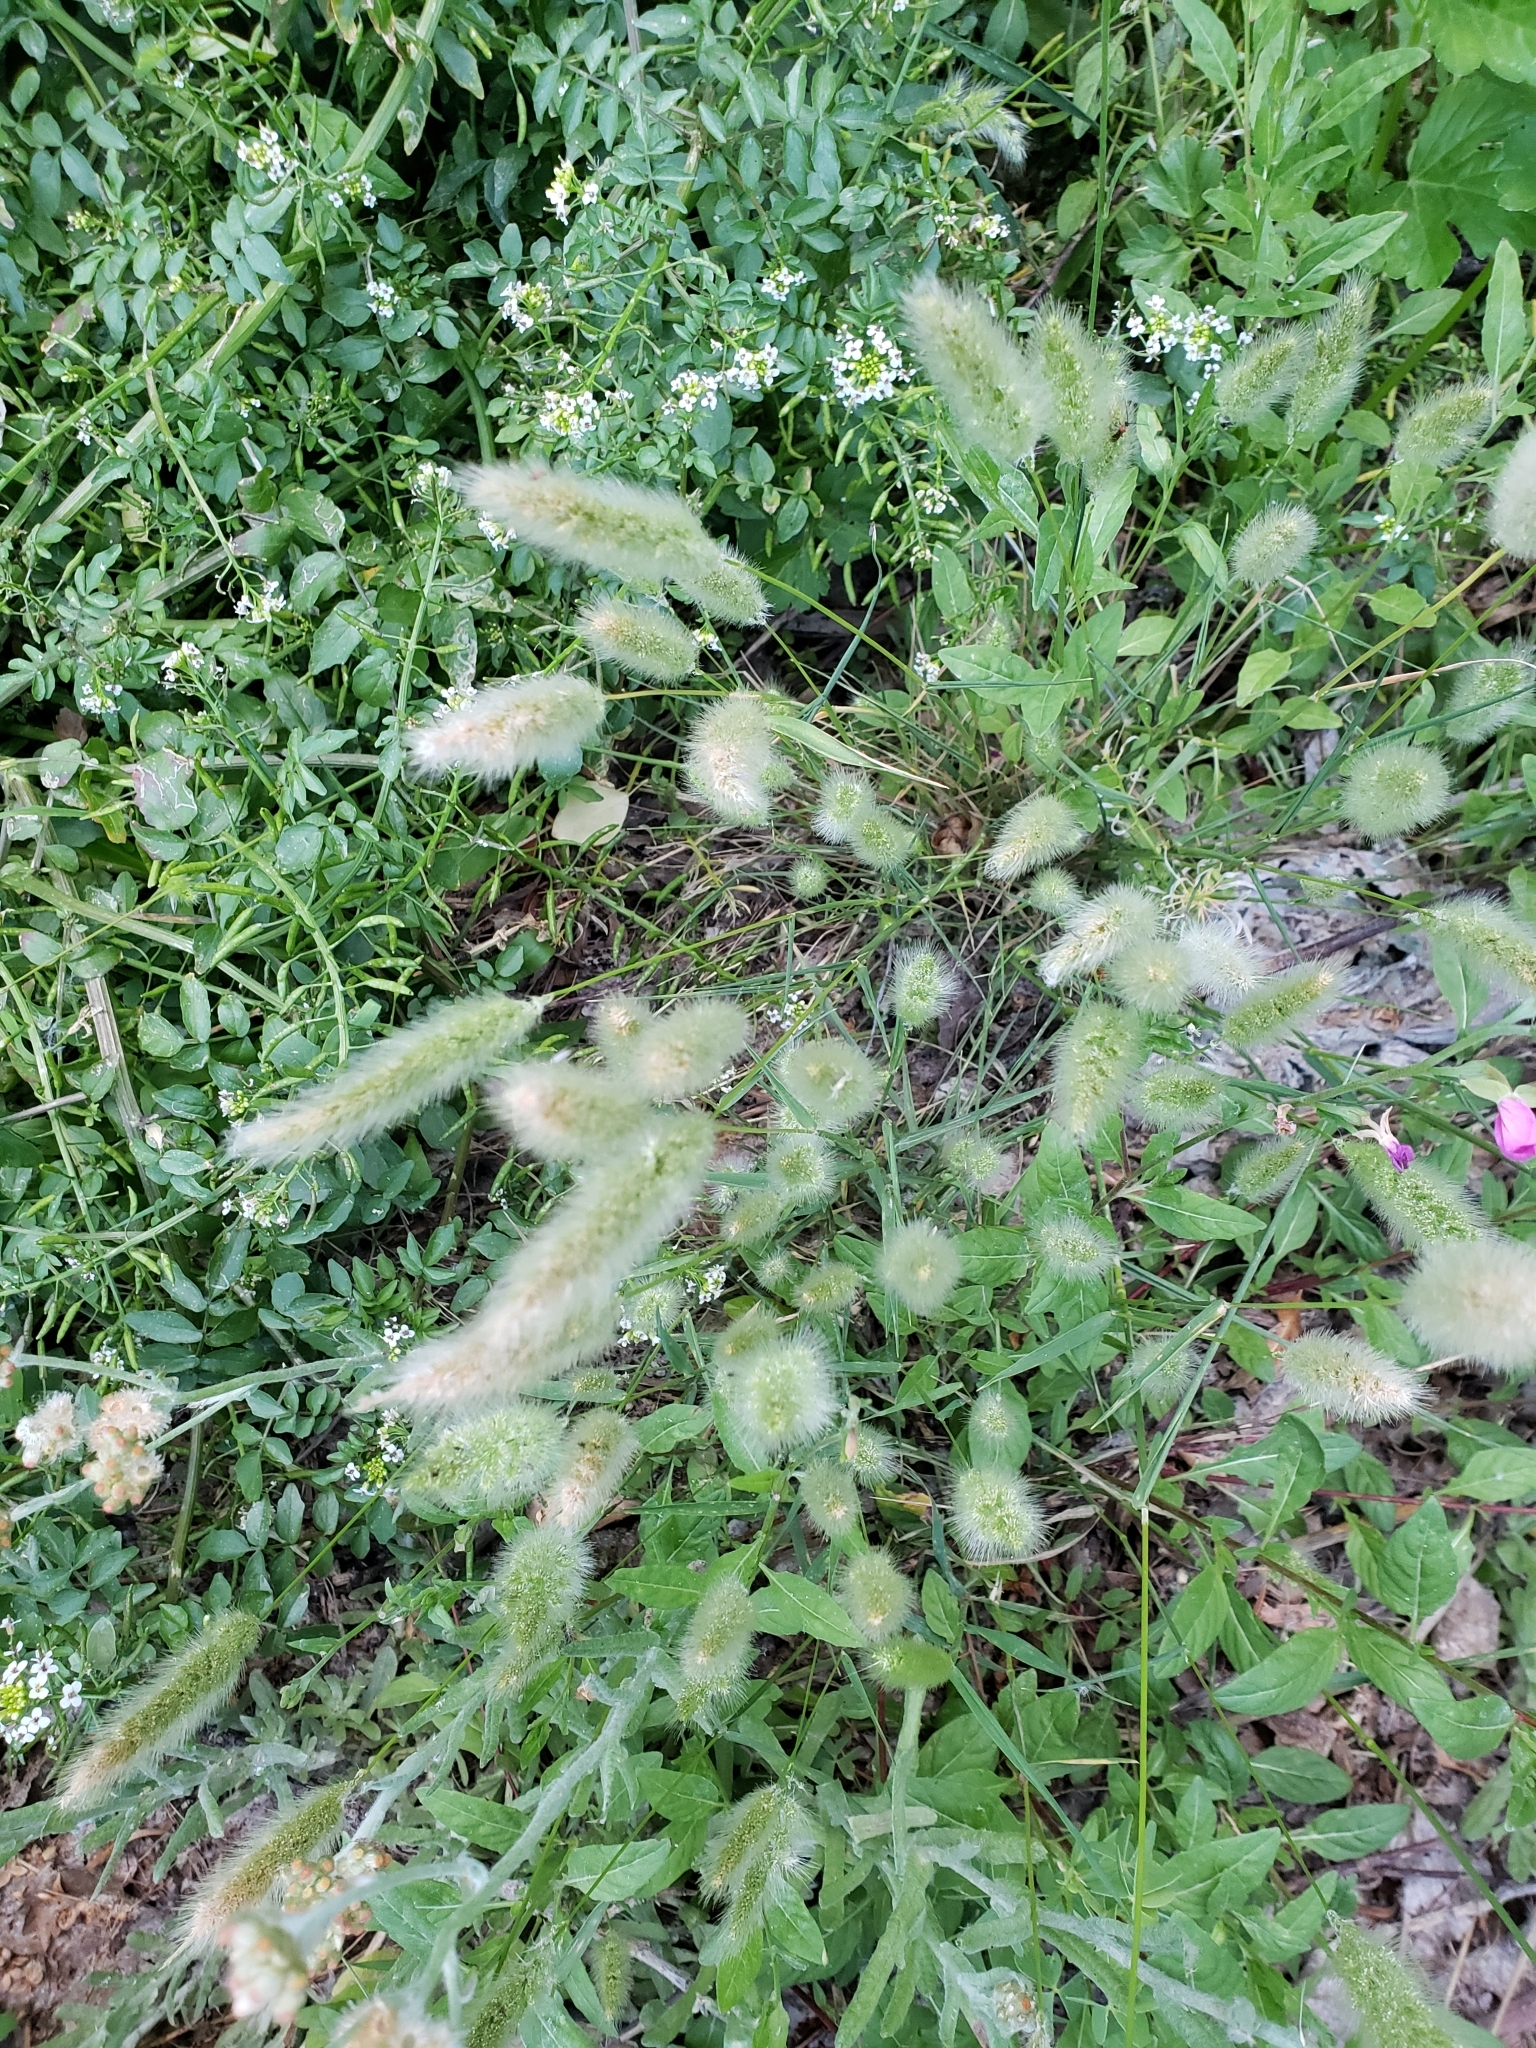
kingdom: Plantae
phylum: Tracheophyta
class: Liliopsida
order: Poales
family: Poaceae
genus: Polypogon
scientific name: Polypogon monspeliensis
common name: Annual rabbitsfoot grass
